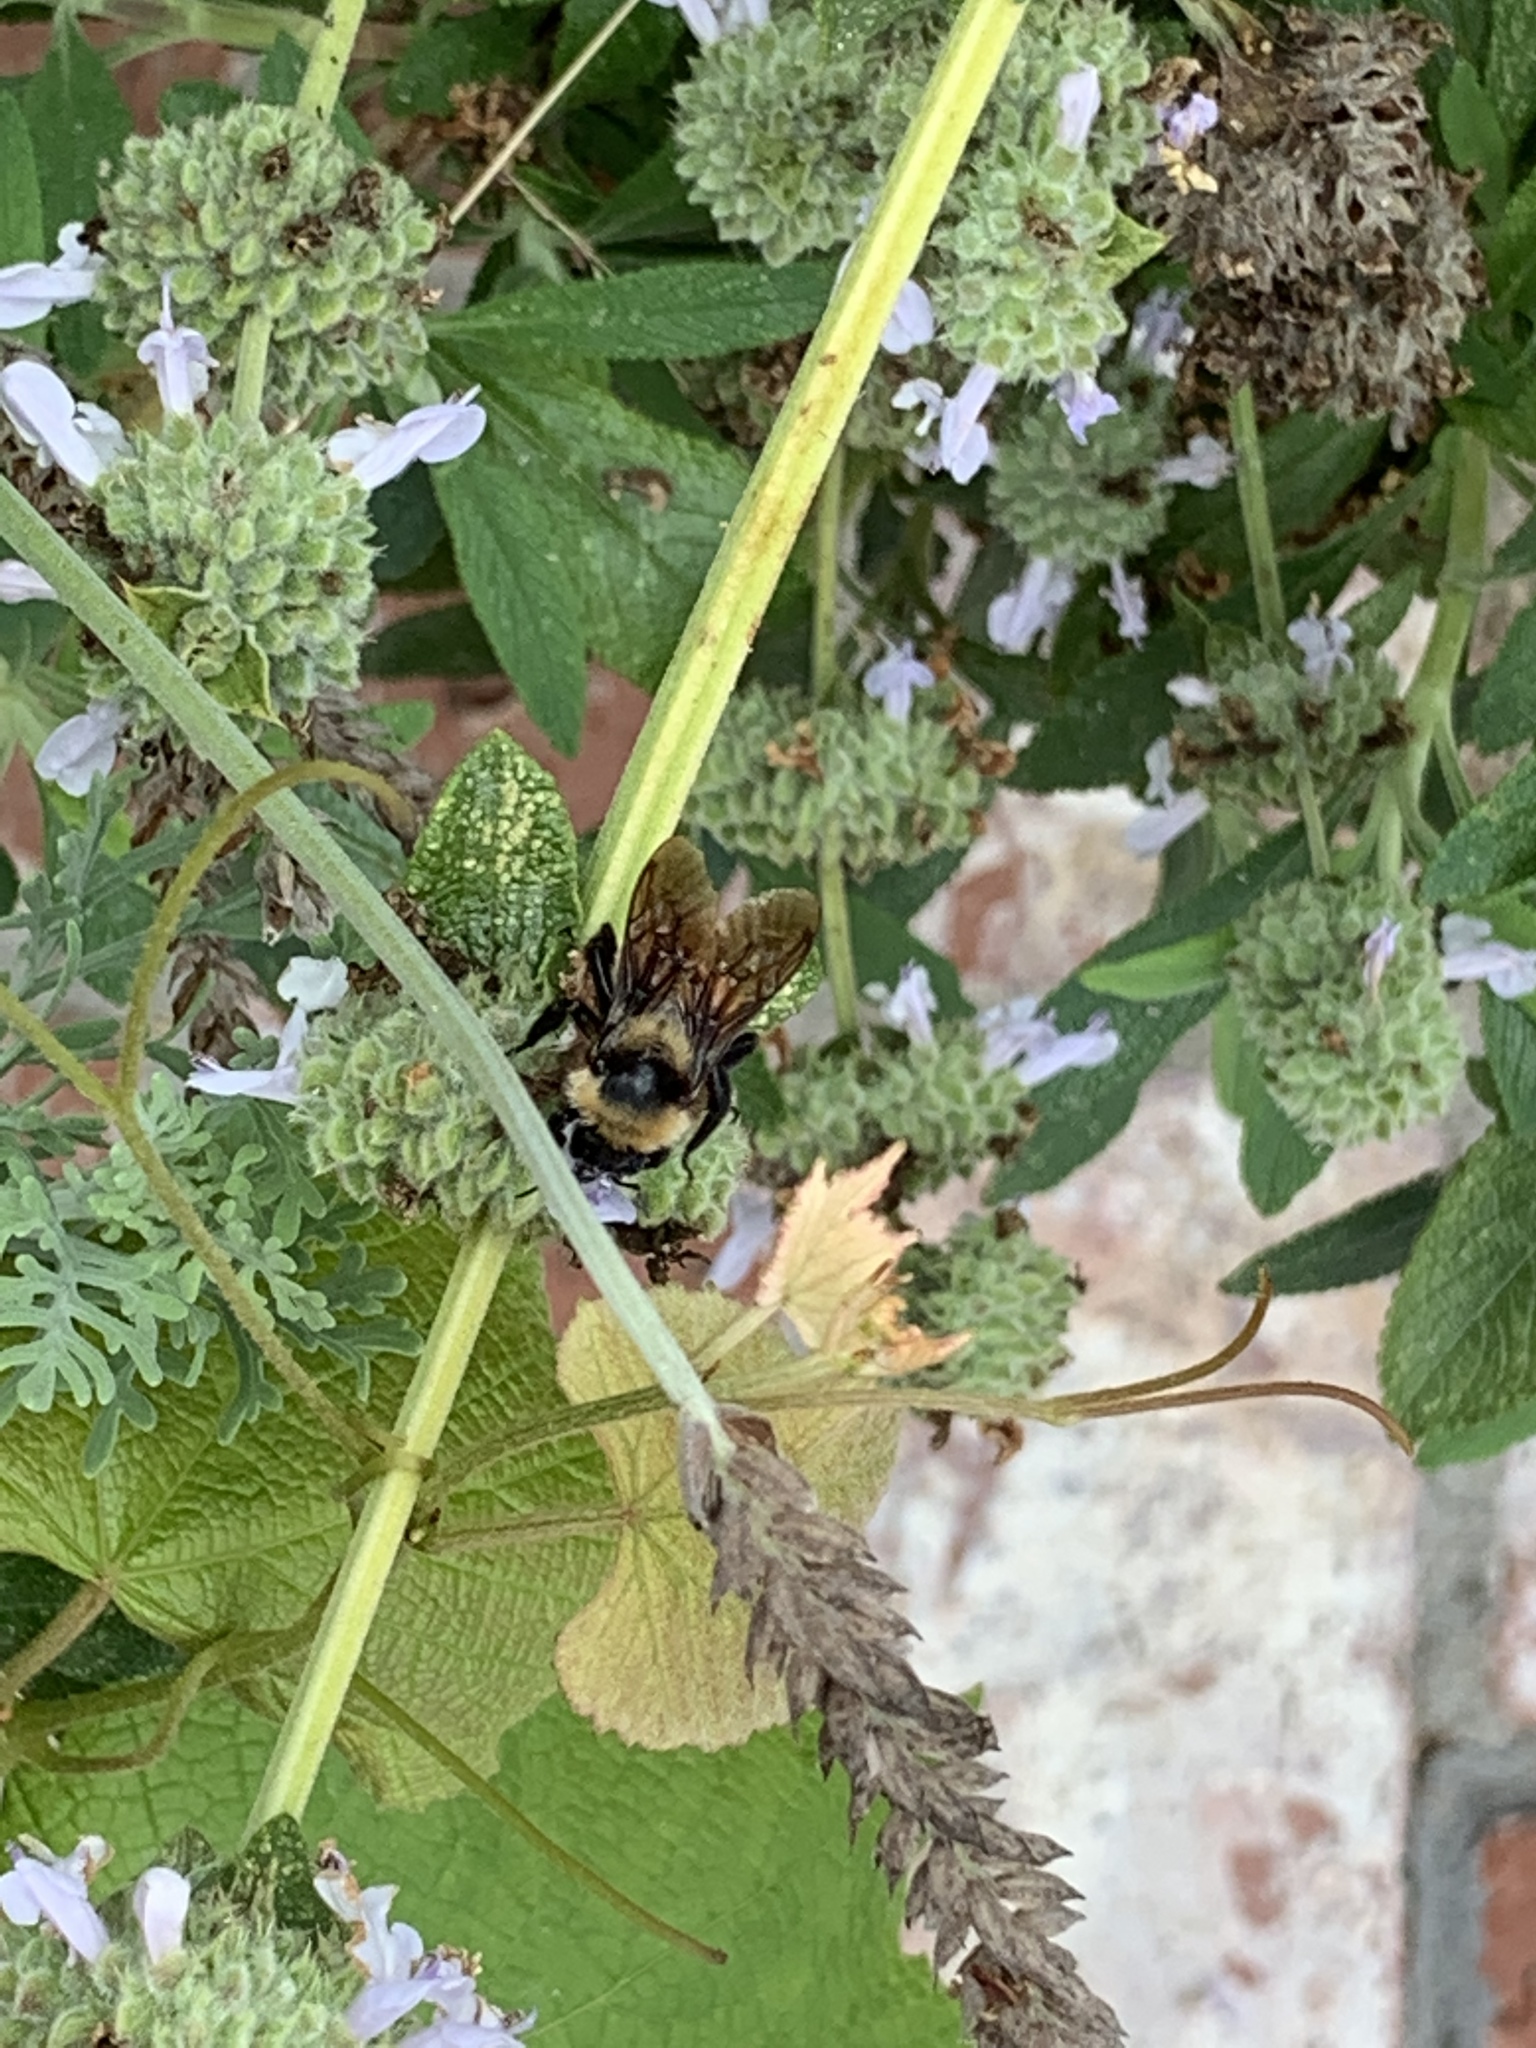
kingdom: Animalia
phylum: Arthropoda
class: Insecta
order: Hymenoptera
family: Apidae
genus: Bombus
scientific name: Bombus sonorus
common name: Sonoran bumble bee
